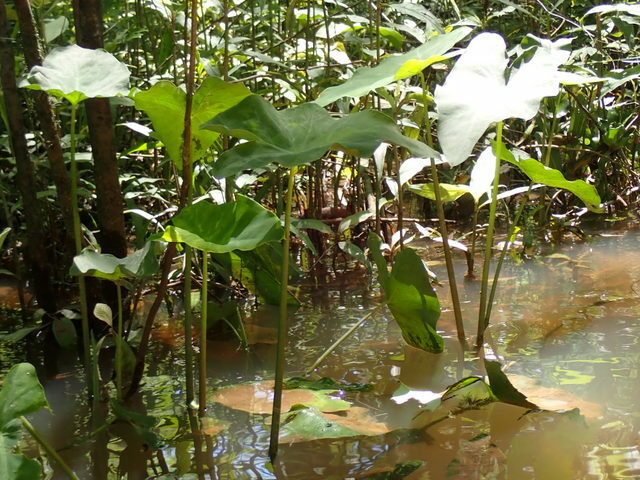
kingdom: Plantae
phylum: Tracheophyta
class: Liliopsida
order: Alismatales
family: Araceae
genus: Colocasia
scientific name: Colocasia esculenta
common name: Taro
